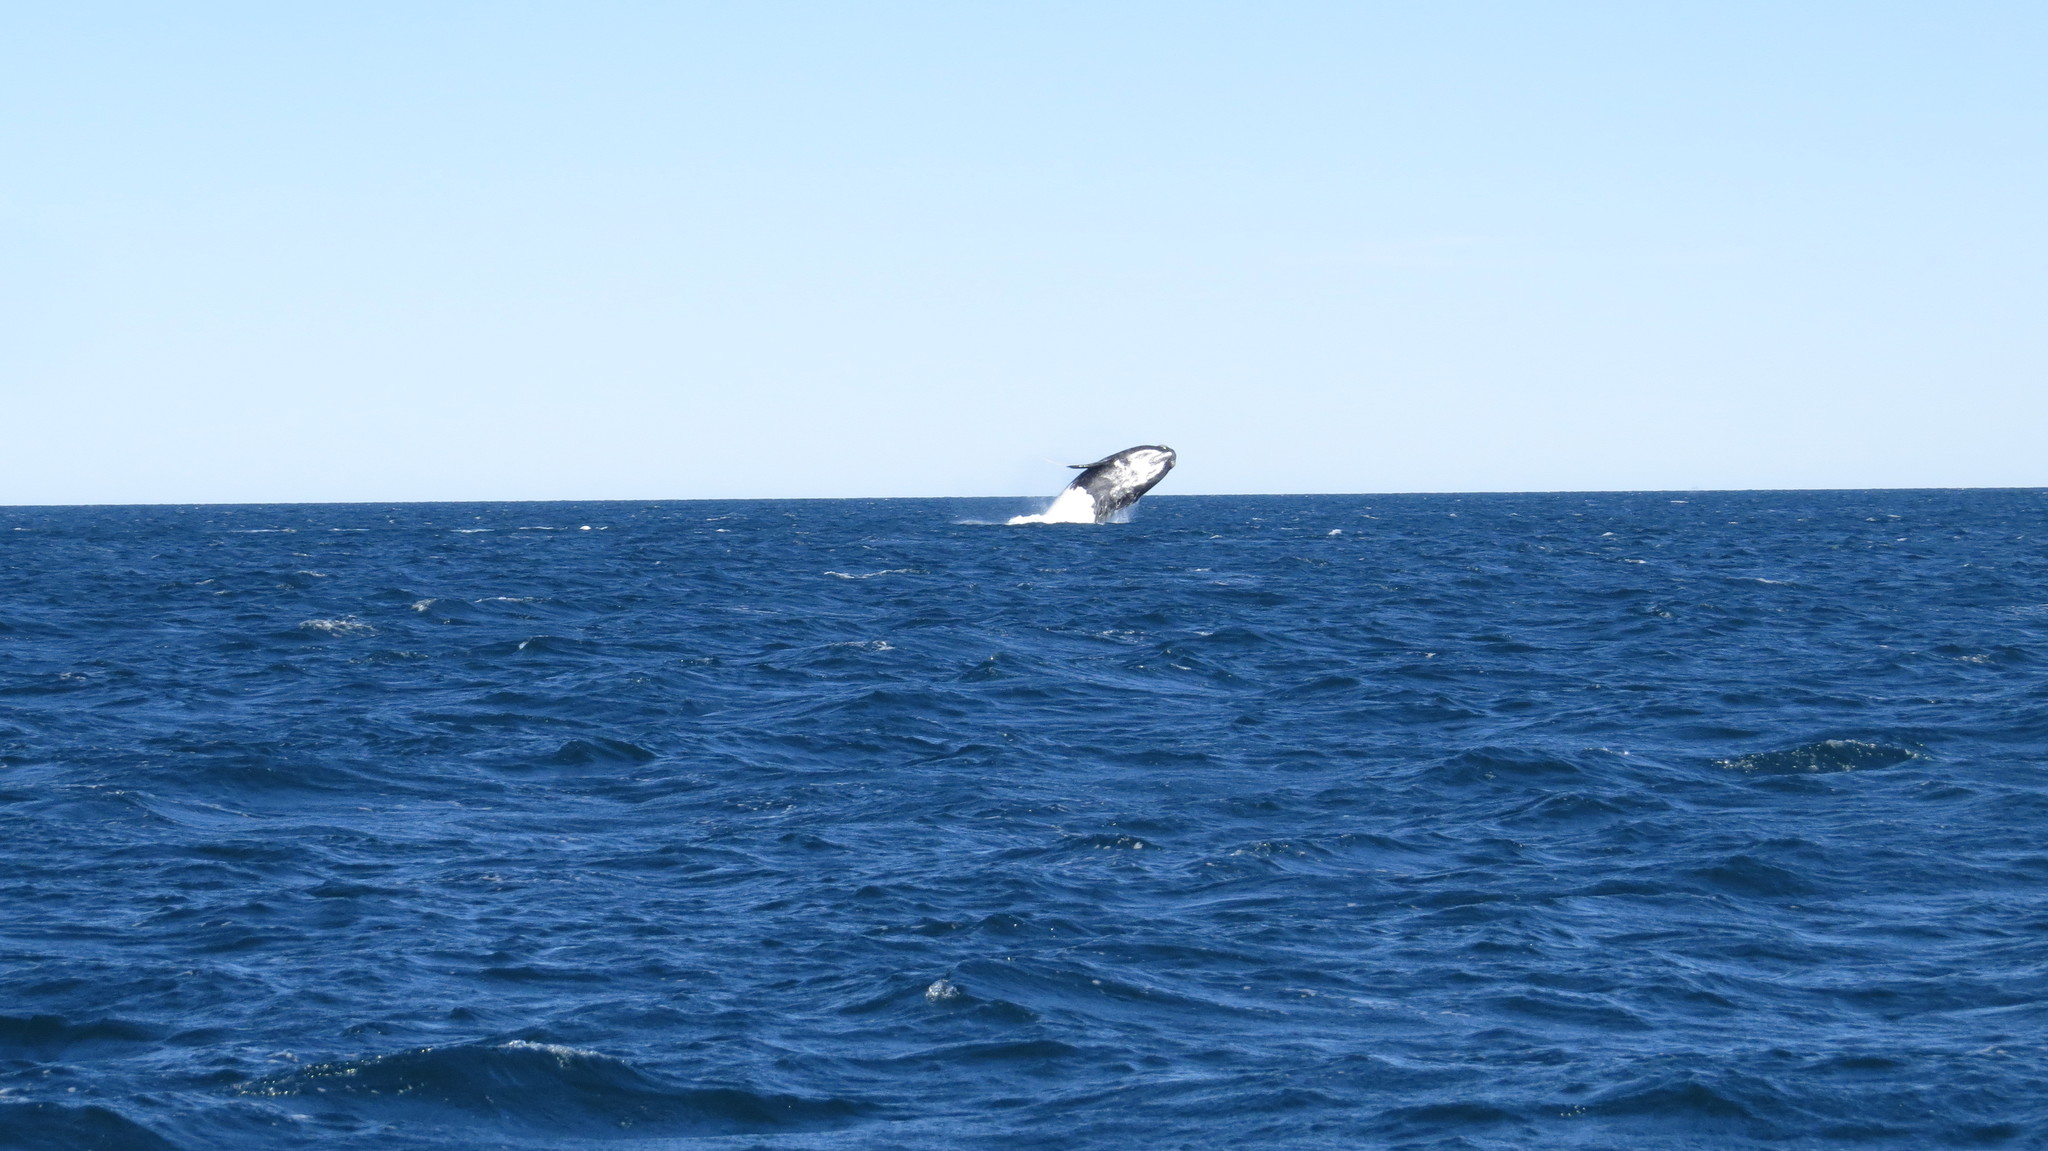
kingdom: Animalia
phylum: Chordata
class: Mammalia
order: Cetacea
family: Balaenidae
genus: Eubalaena
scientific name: Eubalaena australis
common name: Southern right whale
